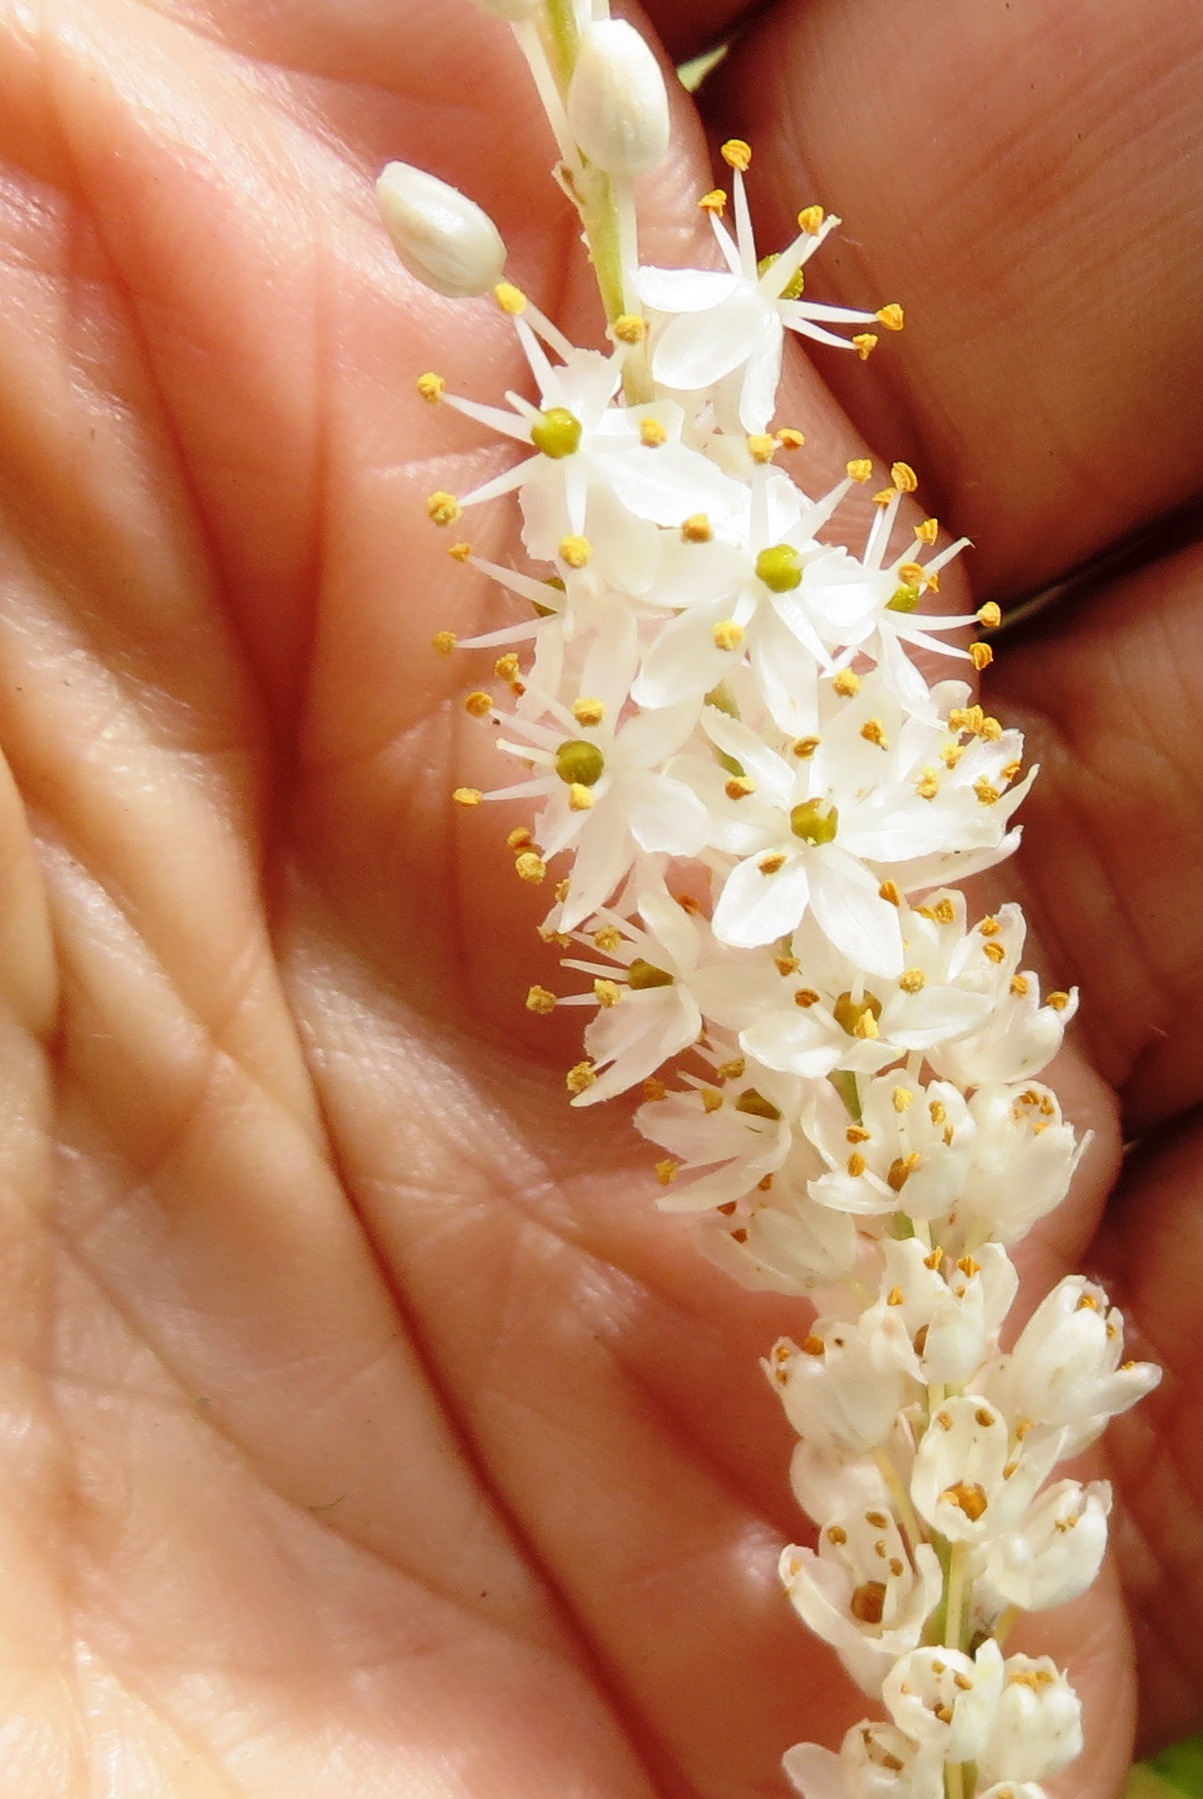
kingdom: Plantae
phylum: Tracheophyta
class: Liliopsida
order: Asparagales
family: Asphodelaceae
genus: Bulbinella
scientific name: Bulbinella trinervis
